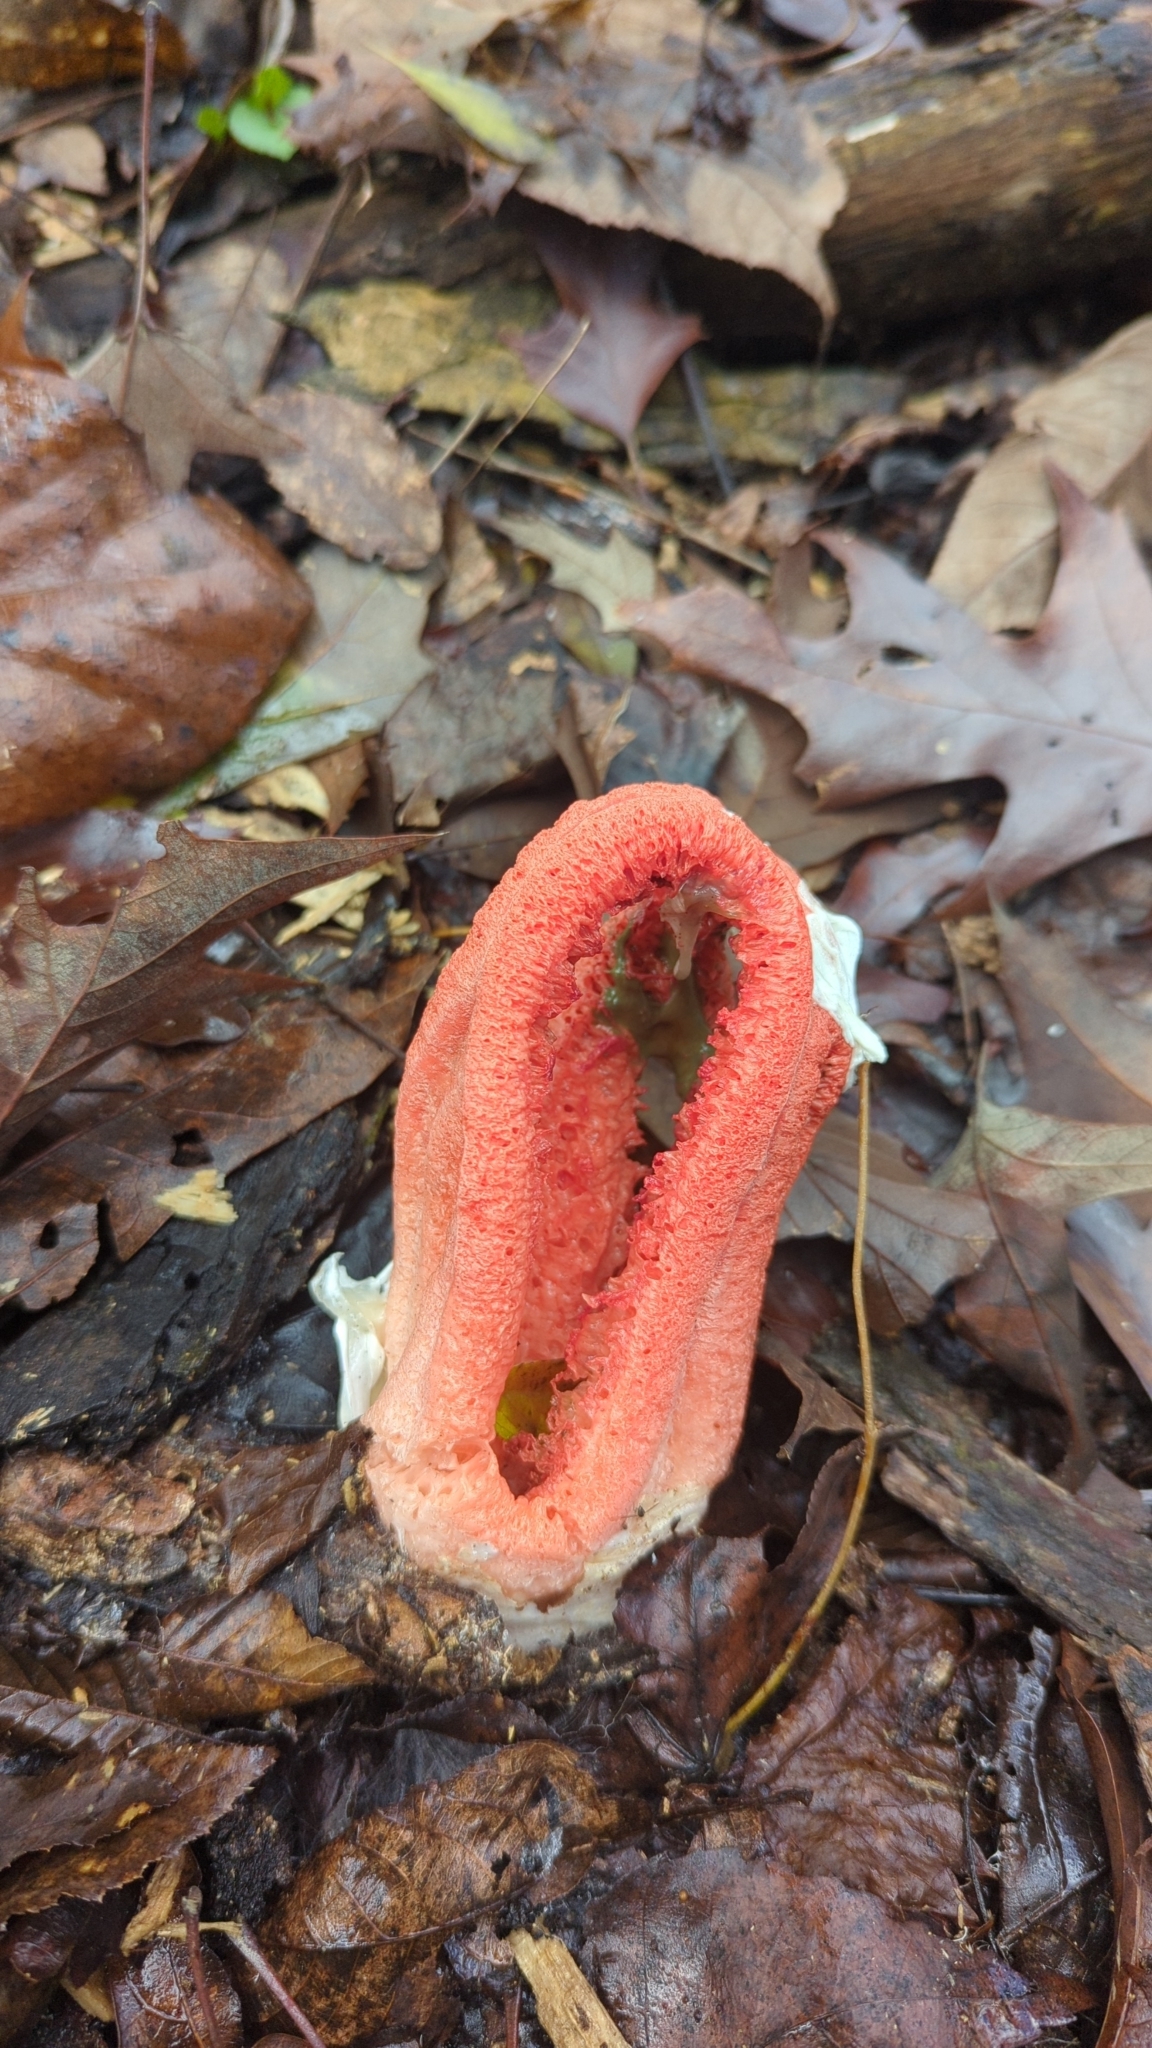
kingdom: Fungi
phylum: Basidiomycota
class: Agaricomycetes
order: Phallales
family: Phallaceae
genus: Clathrus
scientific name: Clathrus columnatus
